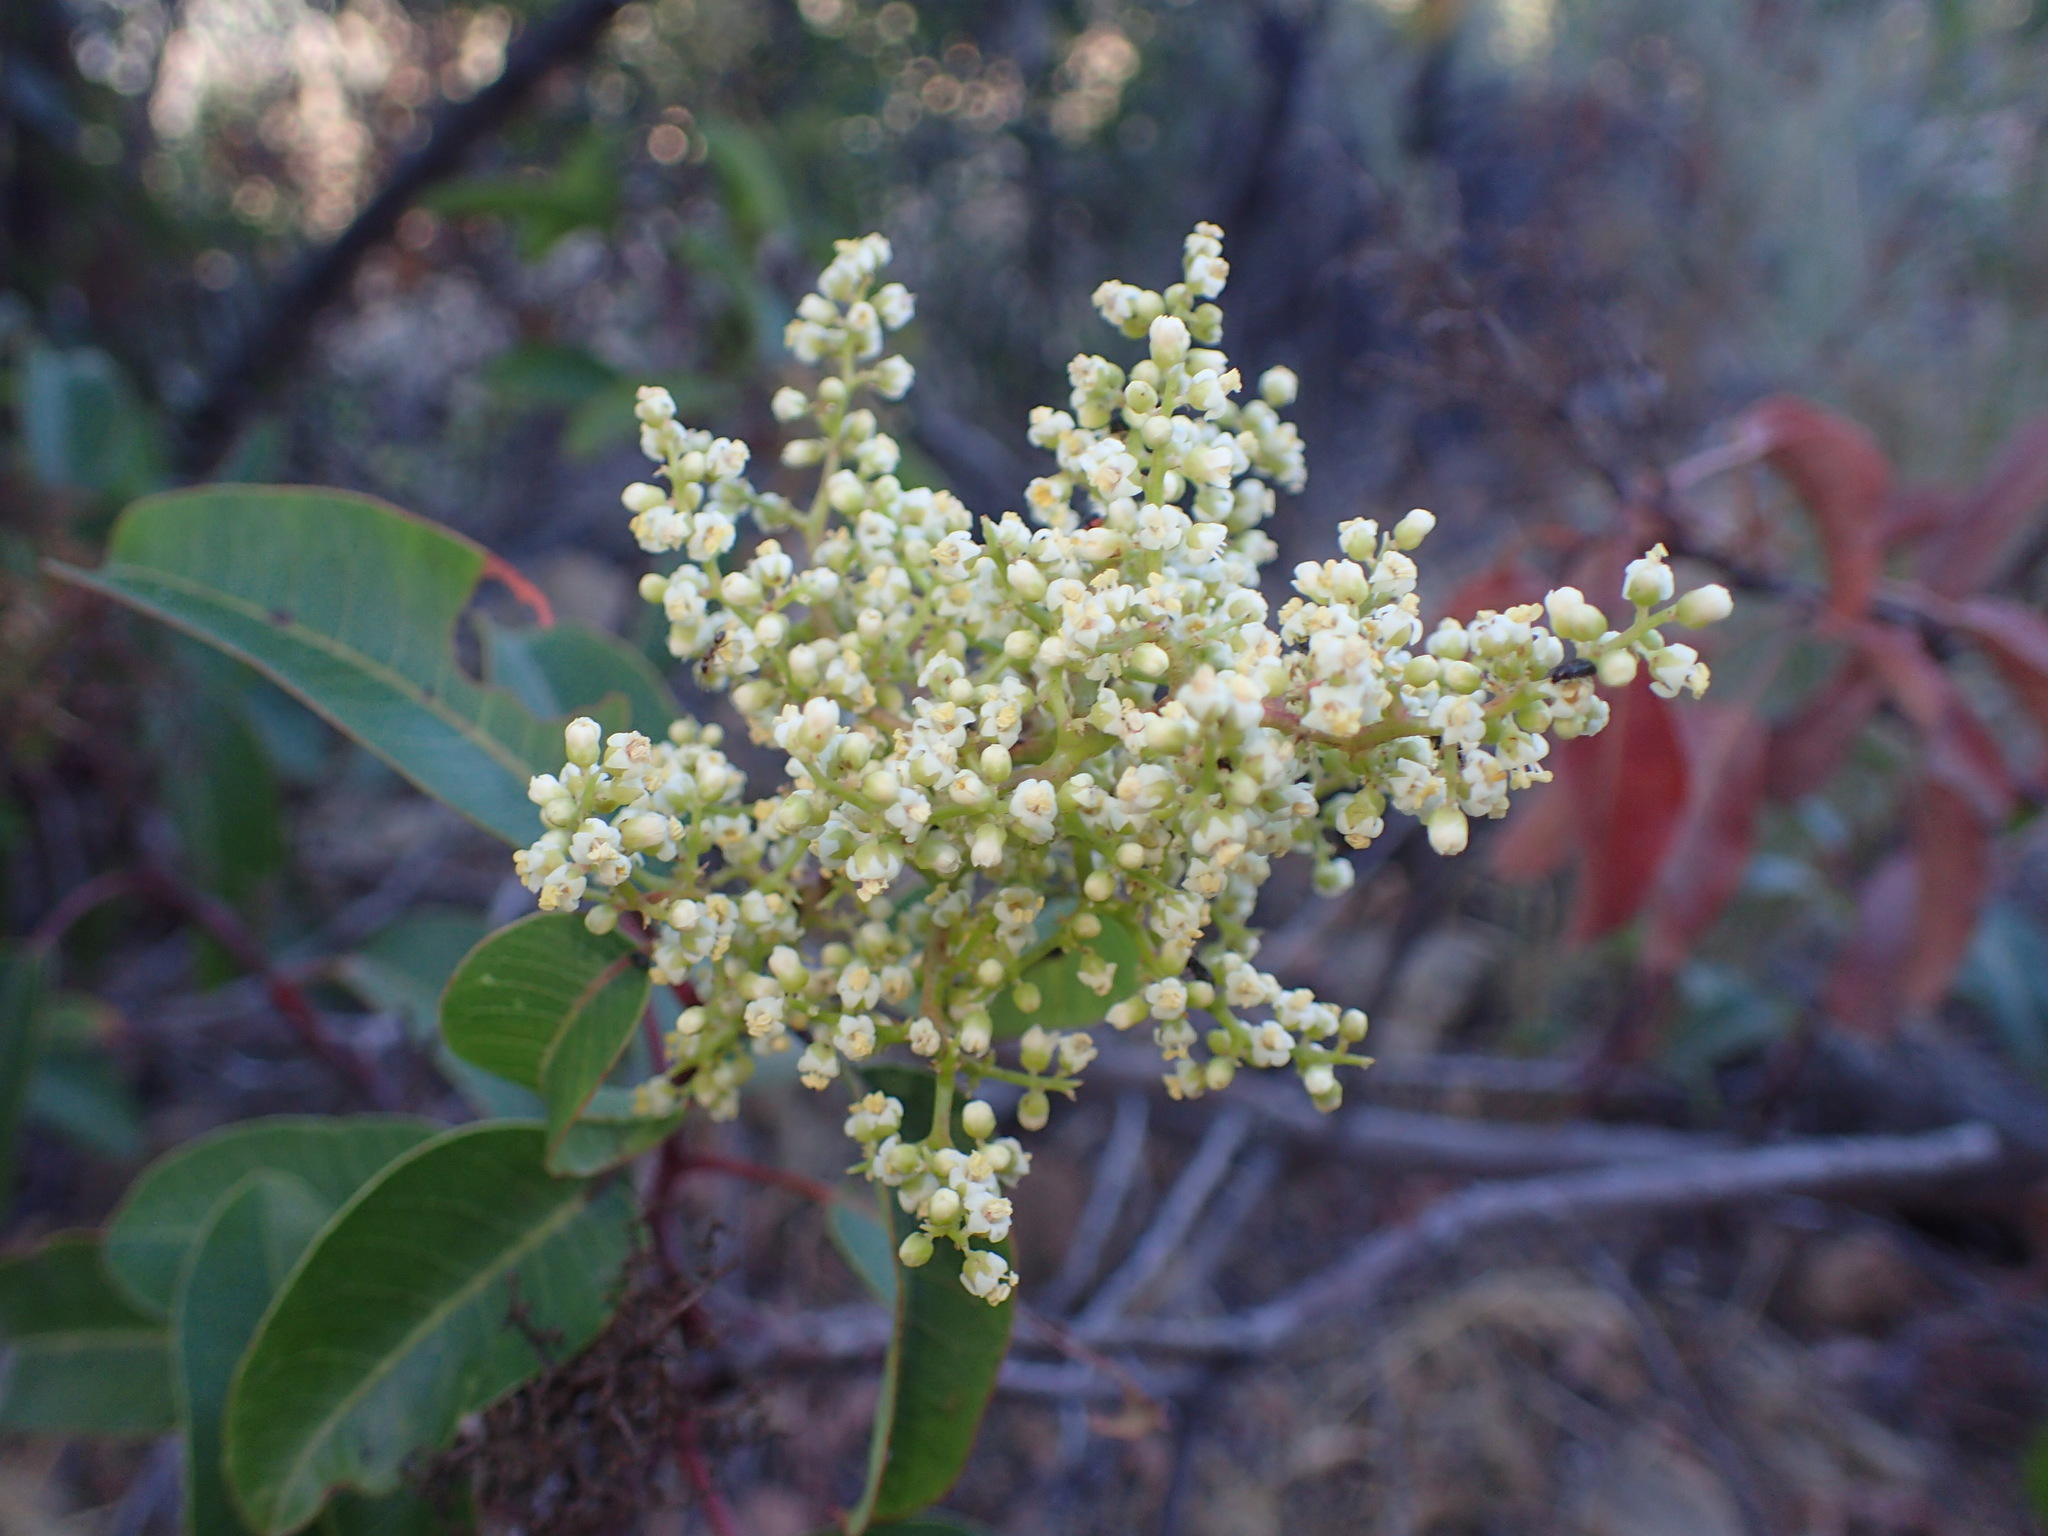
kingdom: Plantae
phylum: Tracheophyta
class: Magnoliopsida
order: Sapindales
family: Anacardiaceae
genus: Malosma
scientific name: Malosma laurina
